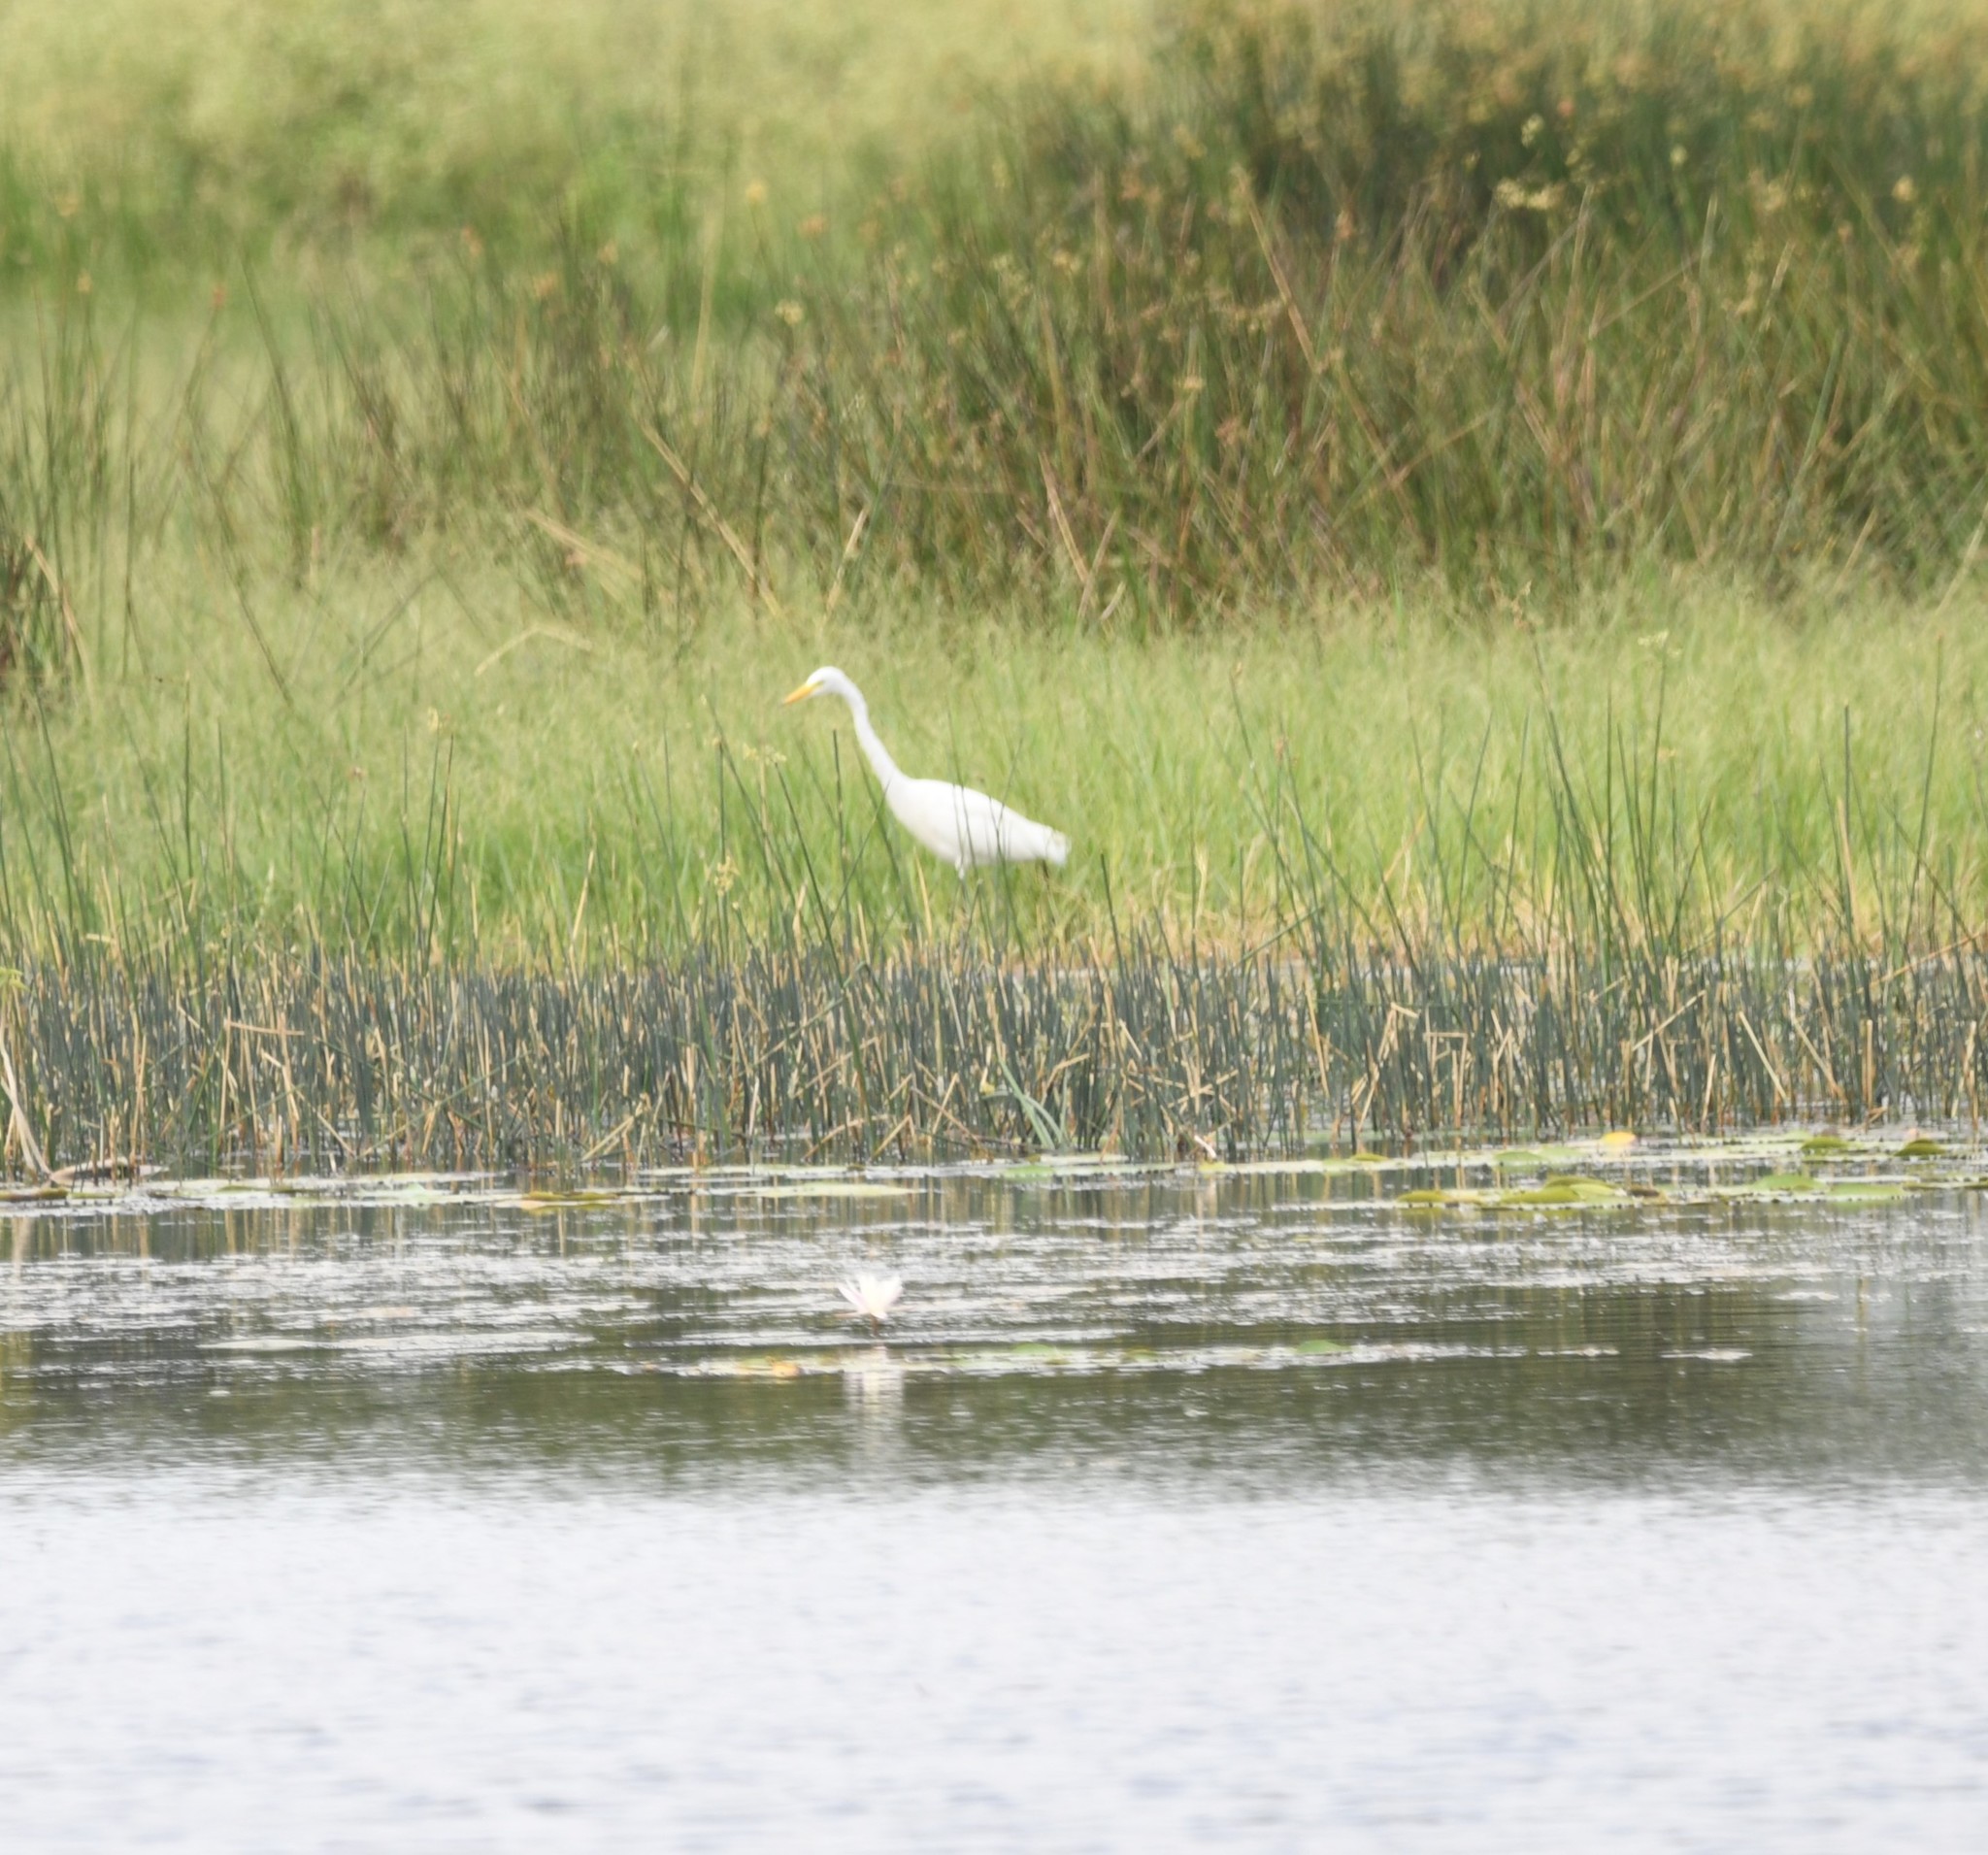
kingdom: Animalia
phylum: Chordata
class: Aves
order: Pelecaniformes
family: Ardeidae
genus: Egretta
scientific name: Egretta intermedia
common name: Intermediate egret
